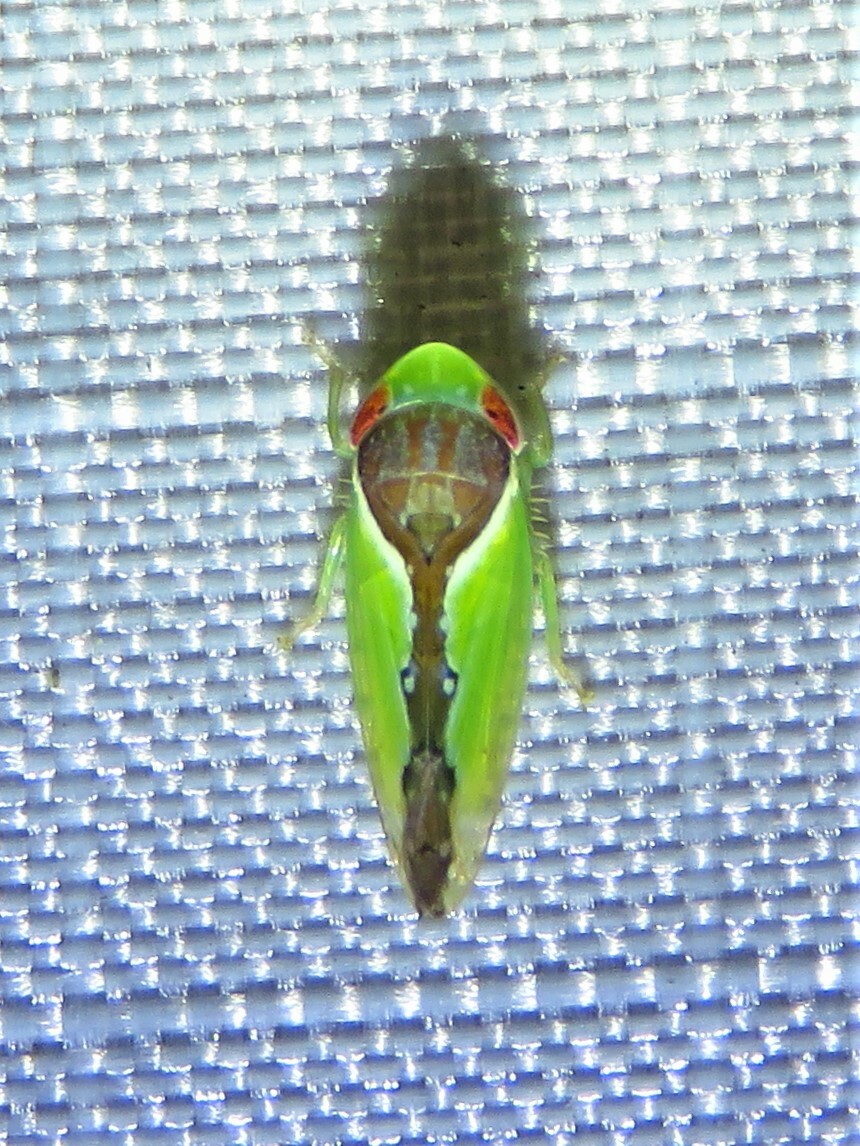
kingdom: Animalia
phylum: Arthropoda
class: Insecta
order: Hemiptera
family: Cicadellidae
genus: Omansobara ing
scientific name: Omansobara ing Omansobara palliolata
